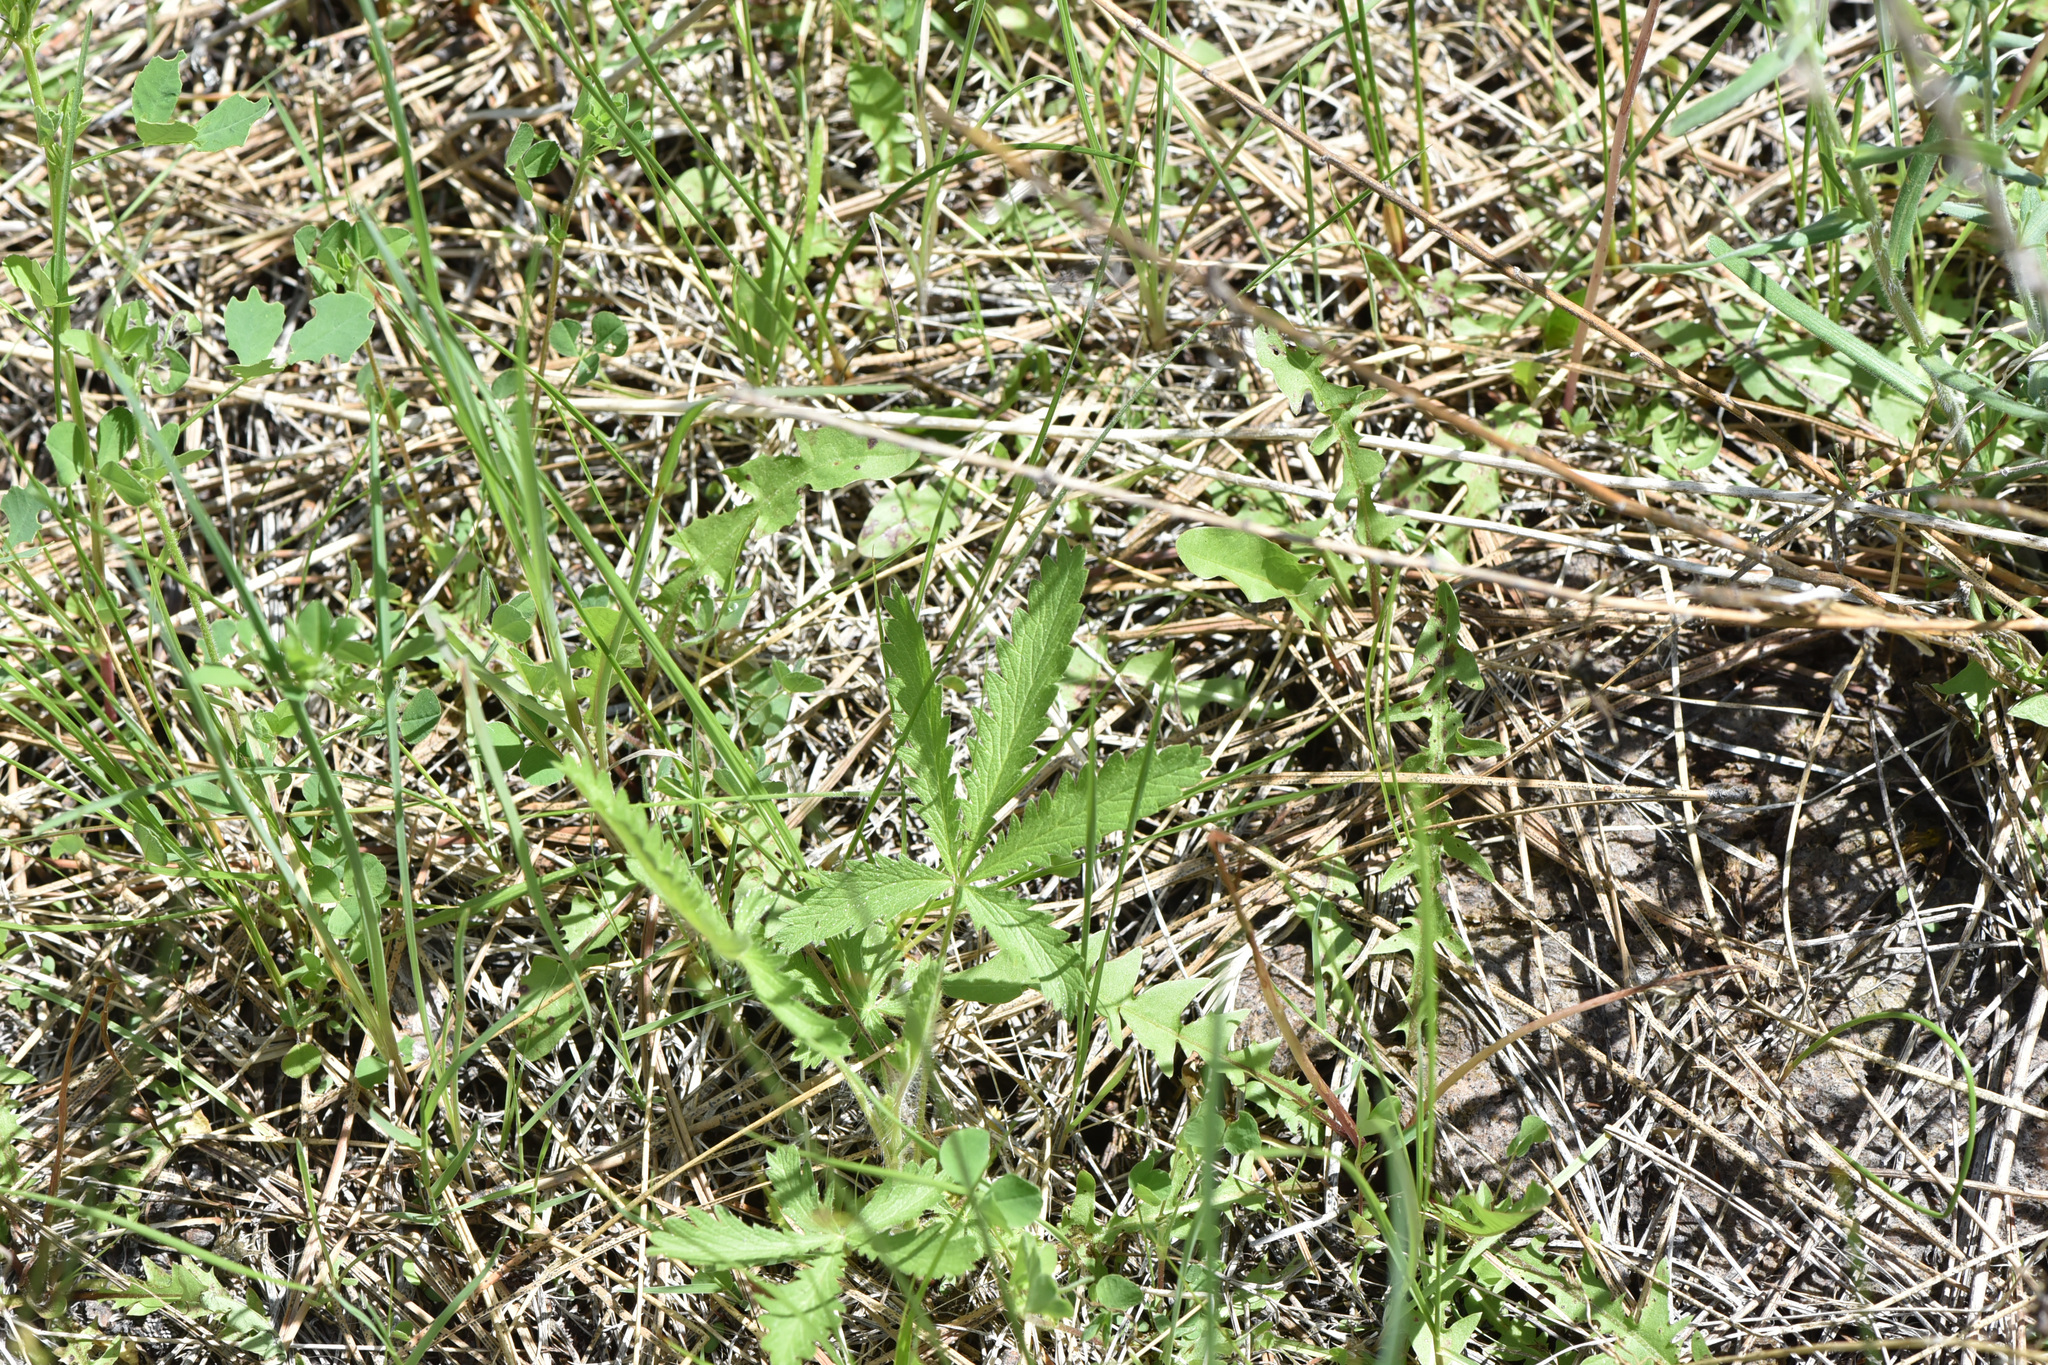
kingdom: Plantae
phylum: Tracheophyta
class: Magnoliopsida
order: Rosales
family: Rosaceae
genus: Potentilla
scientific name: Potentilla recta
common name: Sulphur cinquefoil
